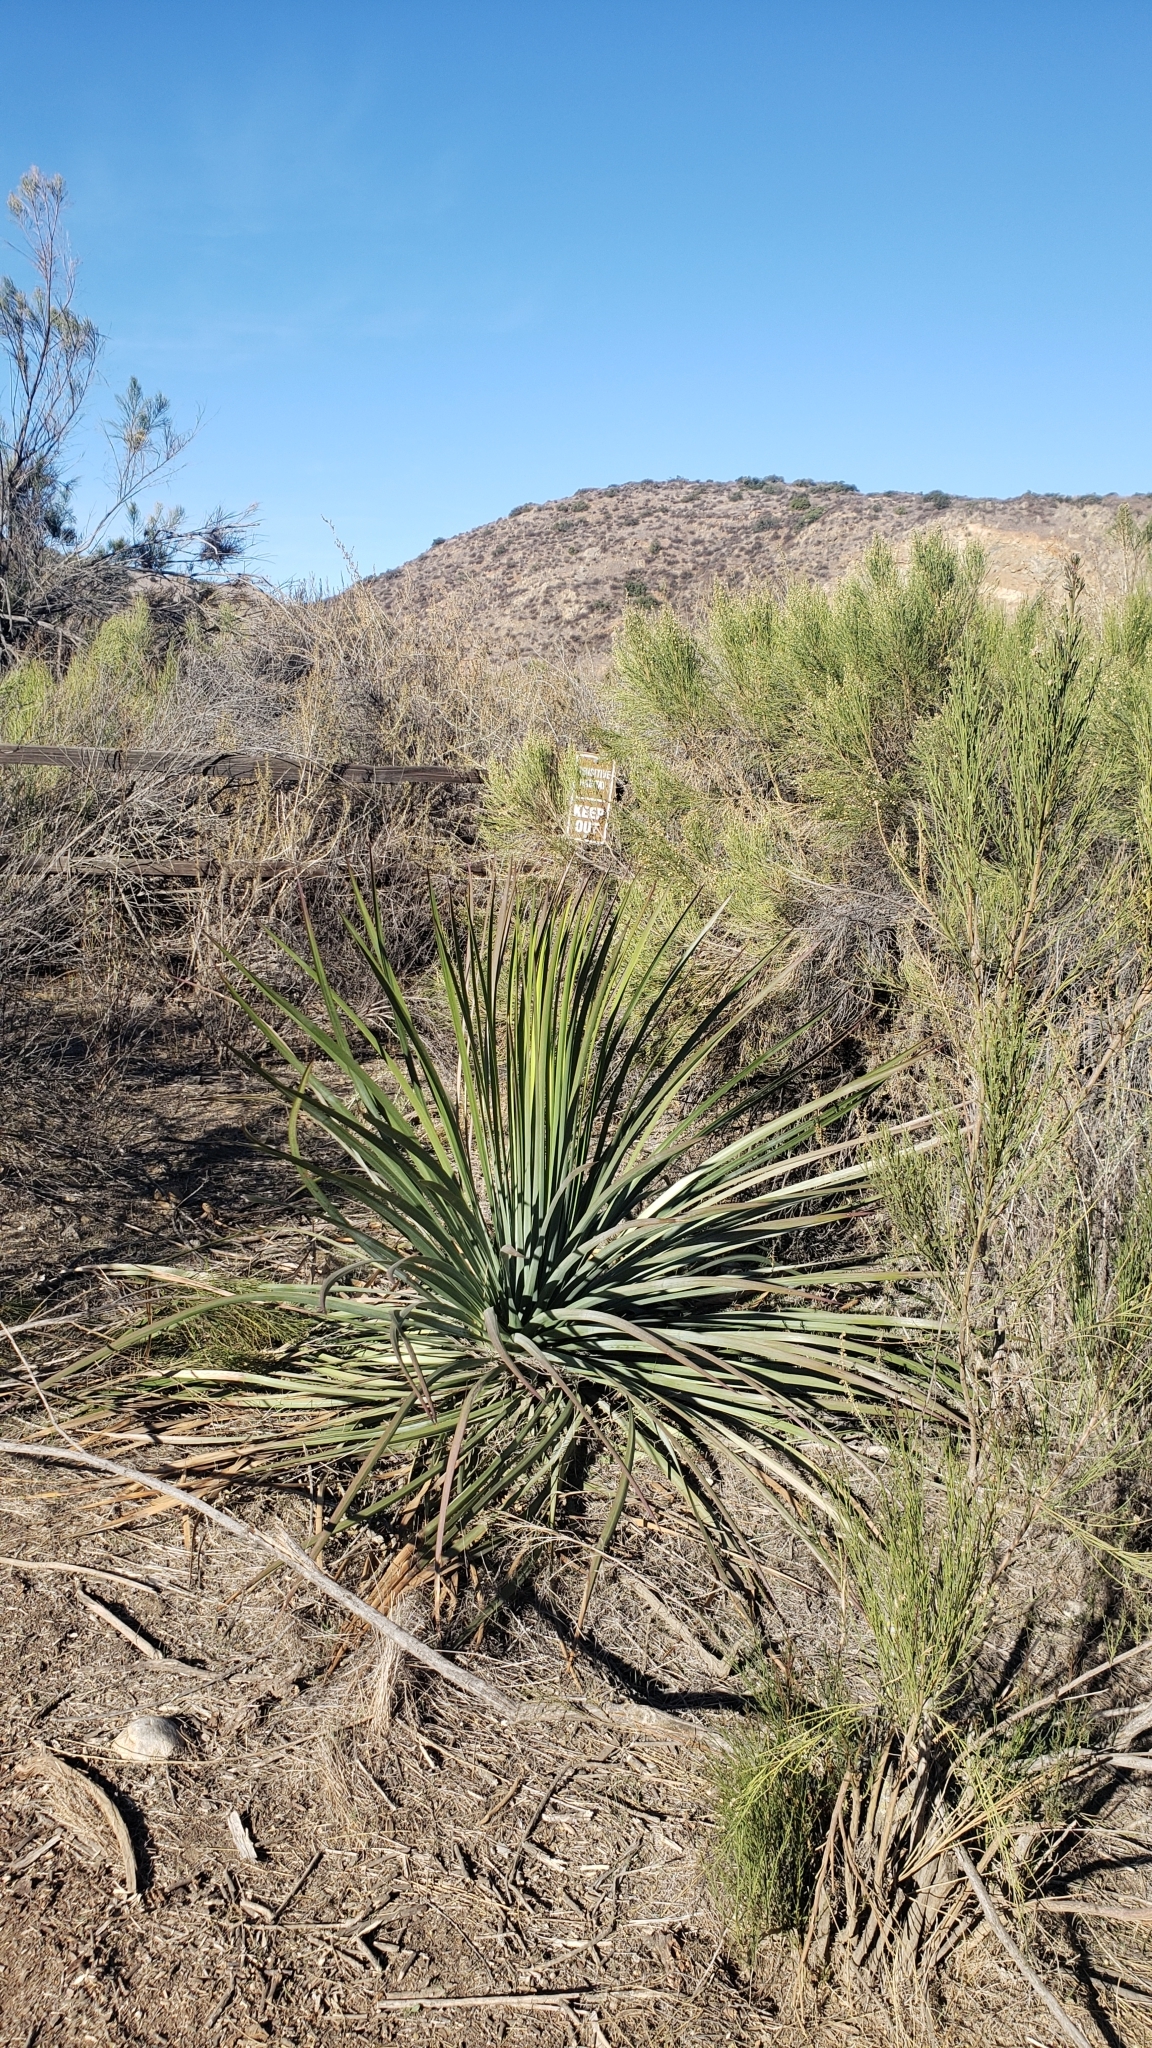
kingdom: Plantae
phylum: Tracheophyta
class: Liliopsida
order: Asparagales
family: Asparagaceae
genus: Hesperoyucca
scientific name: Hesperoyucca whipplei
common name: Our lord's-candle
